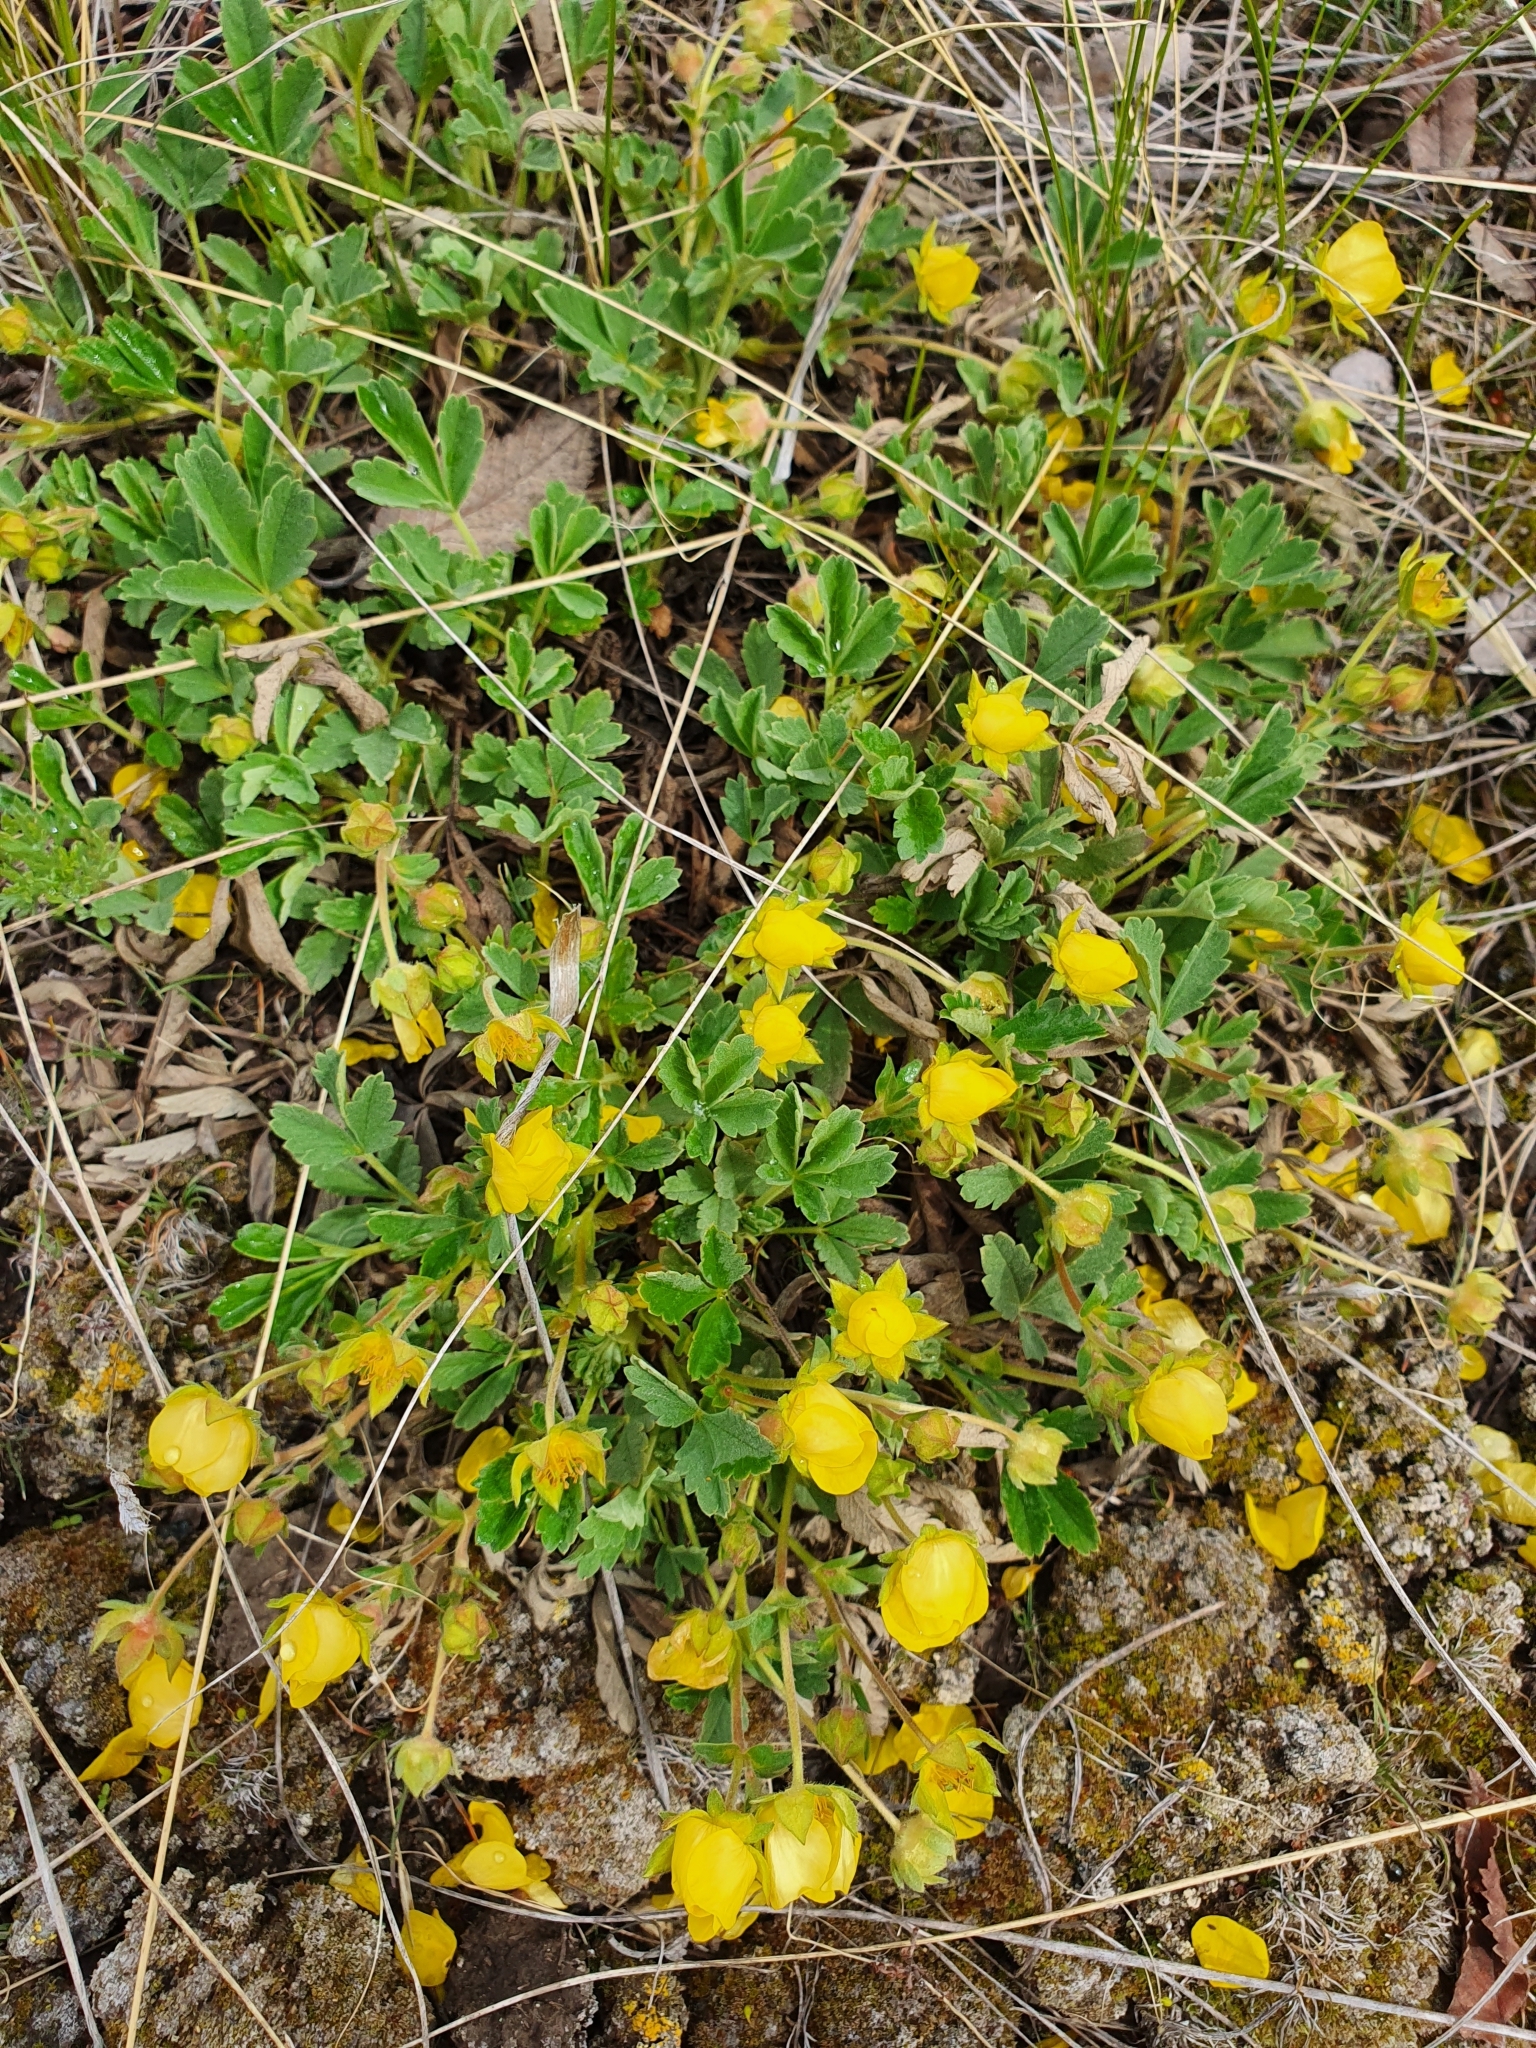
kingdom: Plantae
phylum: Tracheophyta
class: Magnoliopsida
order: Rosales
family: Rosaceae
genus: Potentilla
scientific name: Potentilla glaucescens
